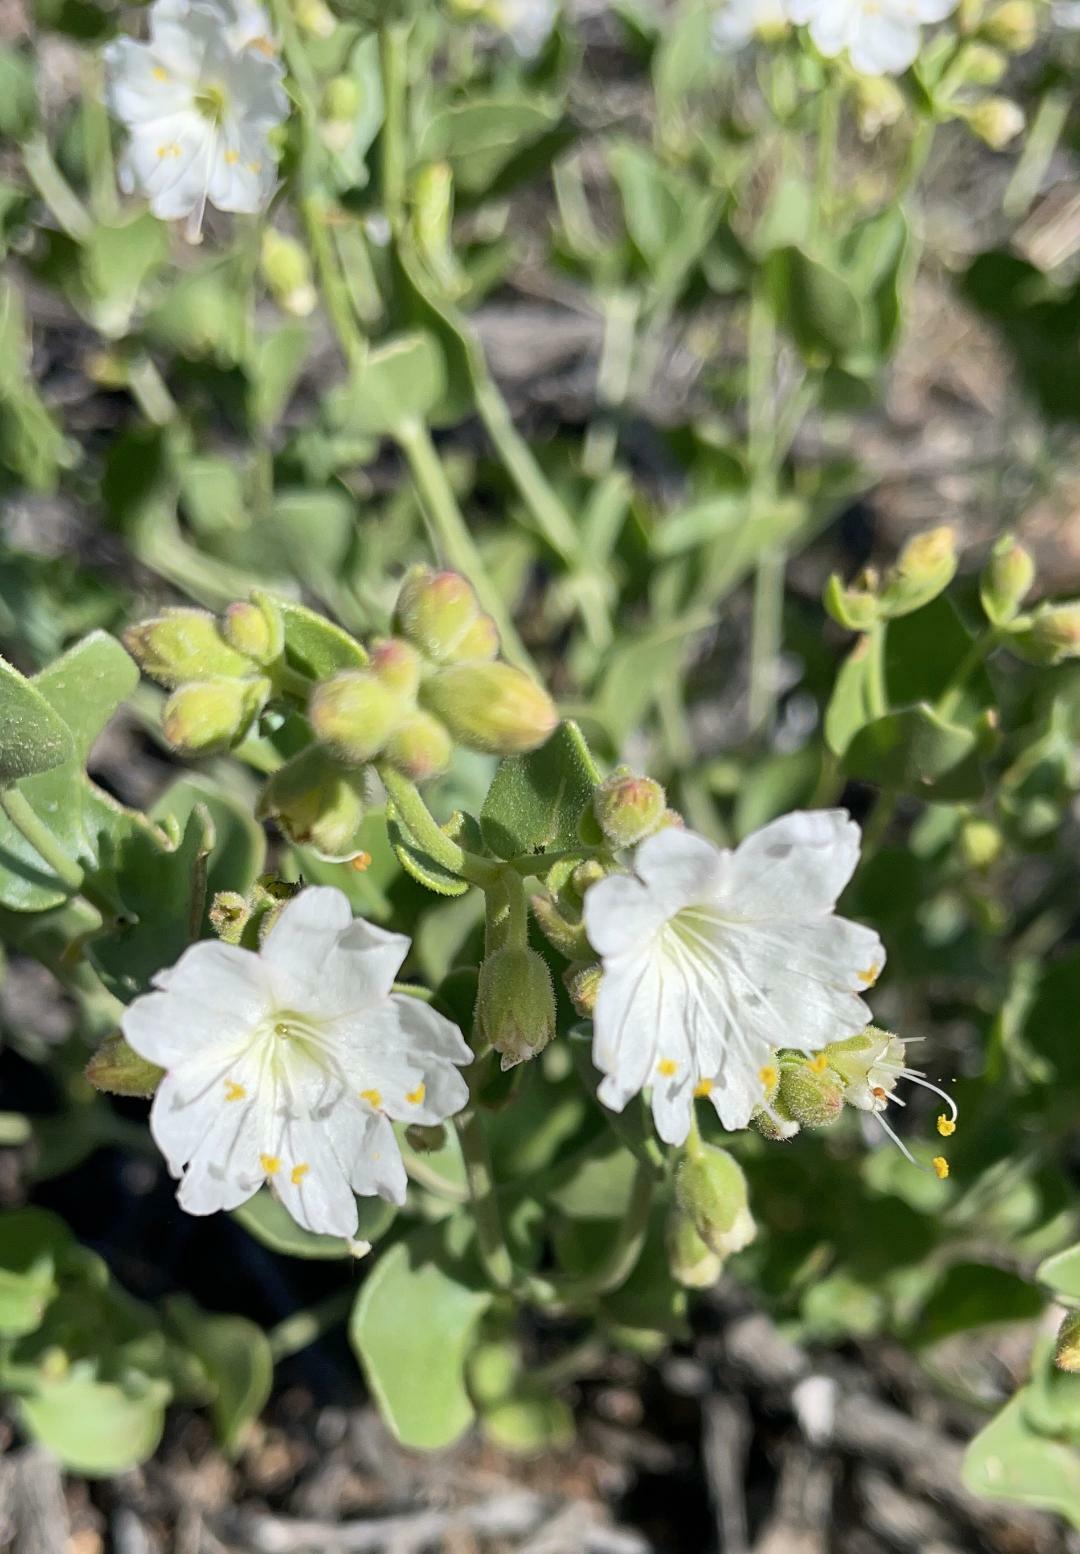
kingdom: Plantae
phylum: Tracheophyta
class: Magnoliopsida
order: Caryophyllales
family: Nyctaginaceae
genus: Mirabilis
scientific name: Mirabilis laevis
